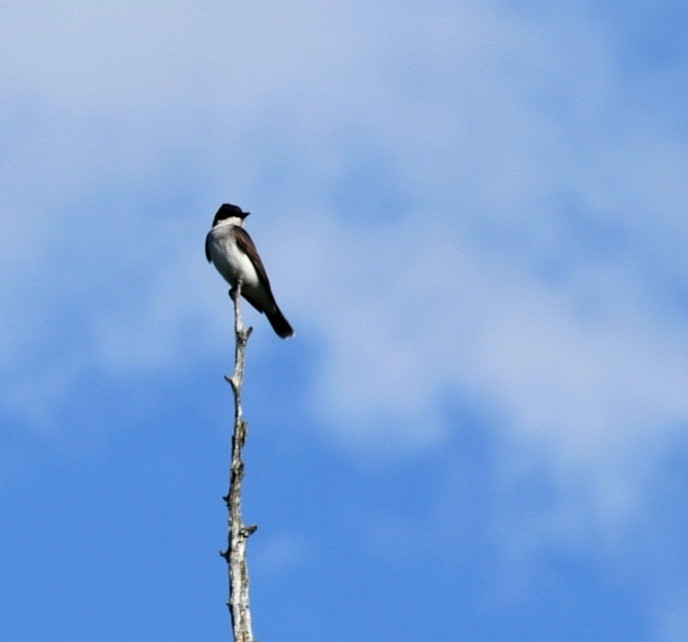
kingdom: Animalia
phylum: Chordata
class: Aves
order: Passeriformes
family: Tyrannidae
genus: Tyrannus
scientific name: Tyrannus tyrannus
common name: Eastern kingbird
